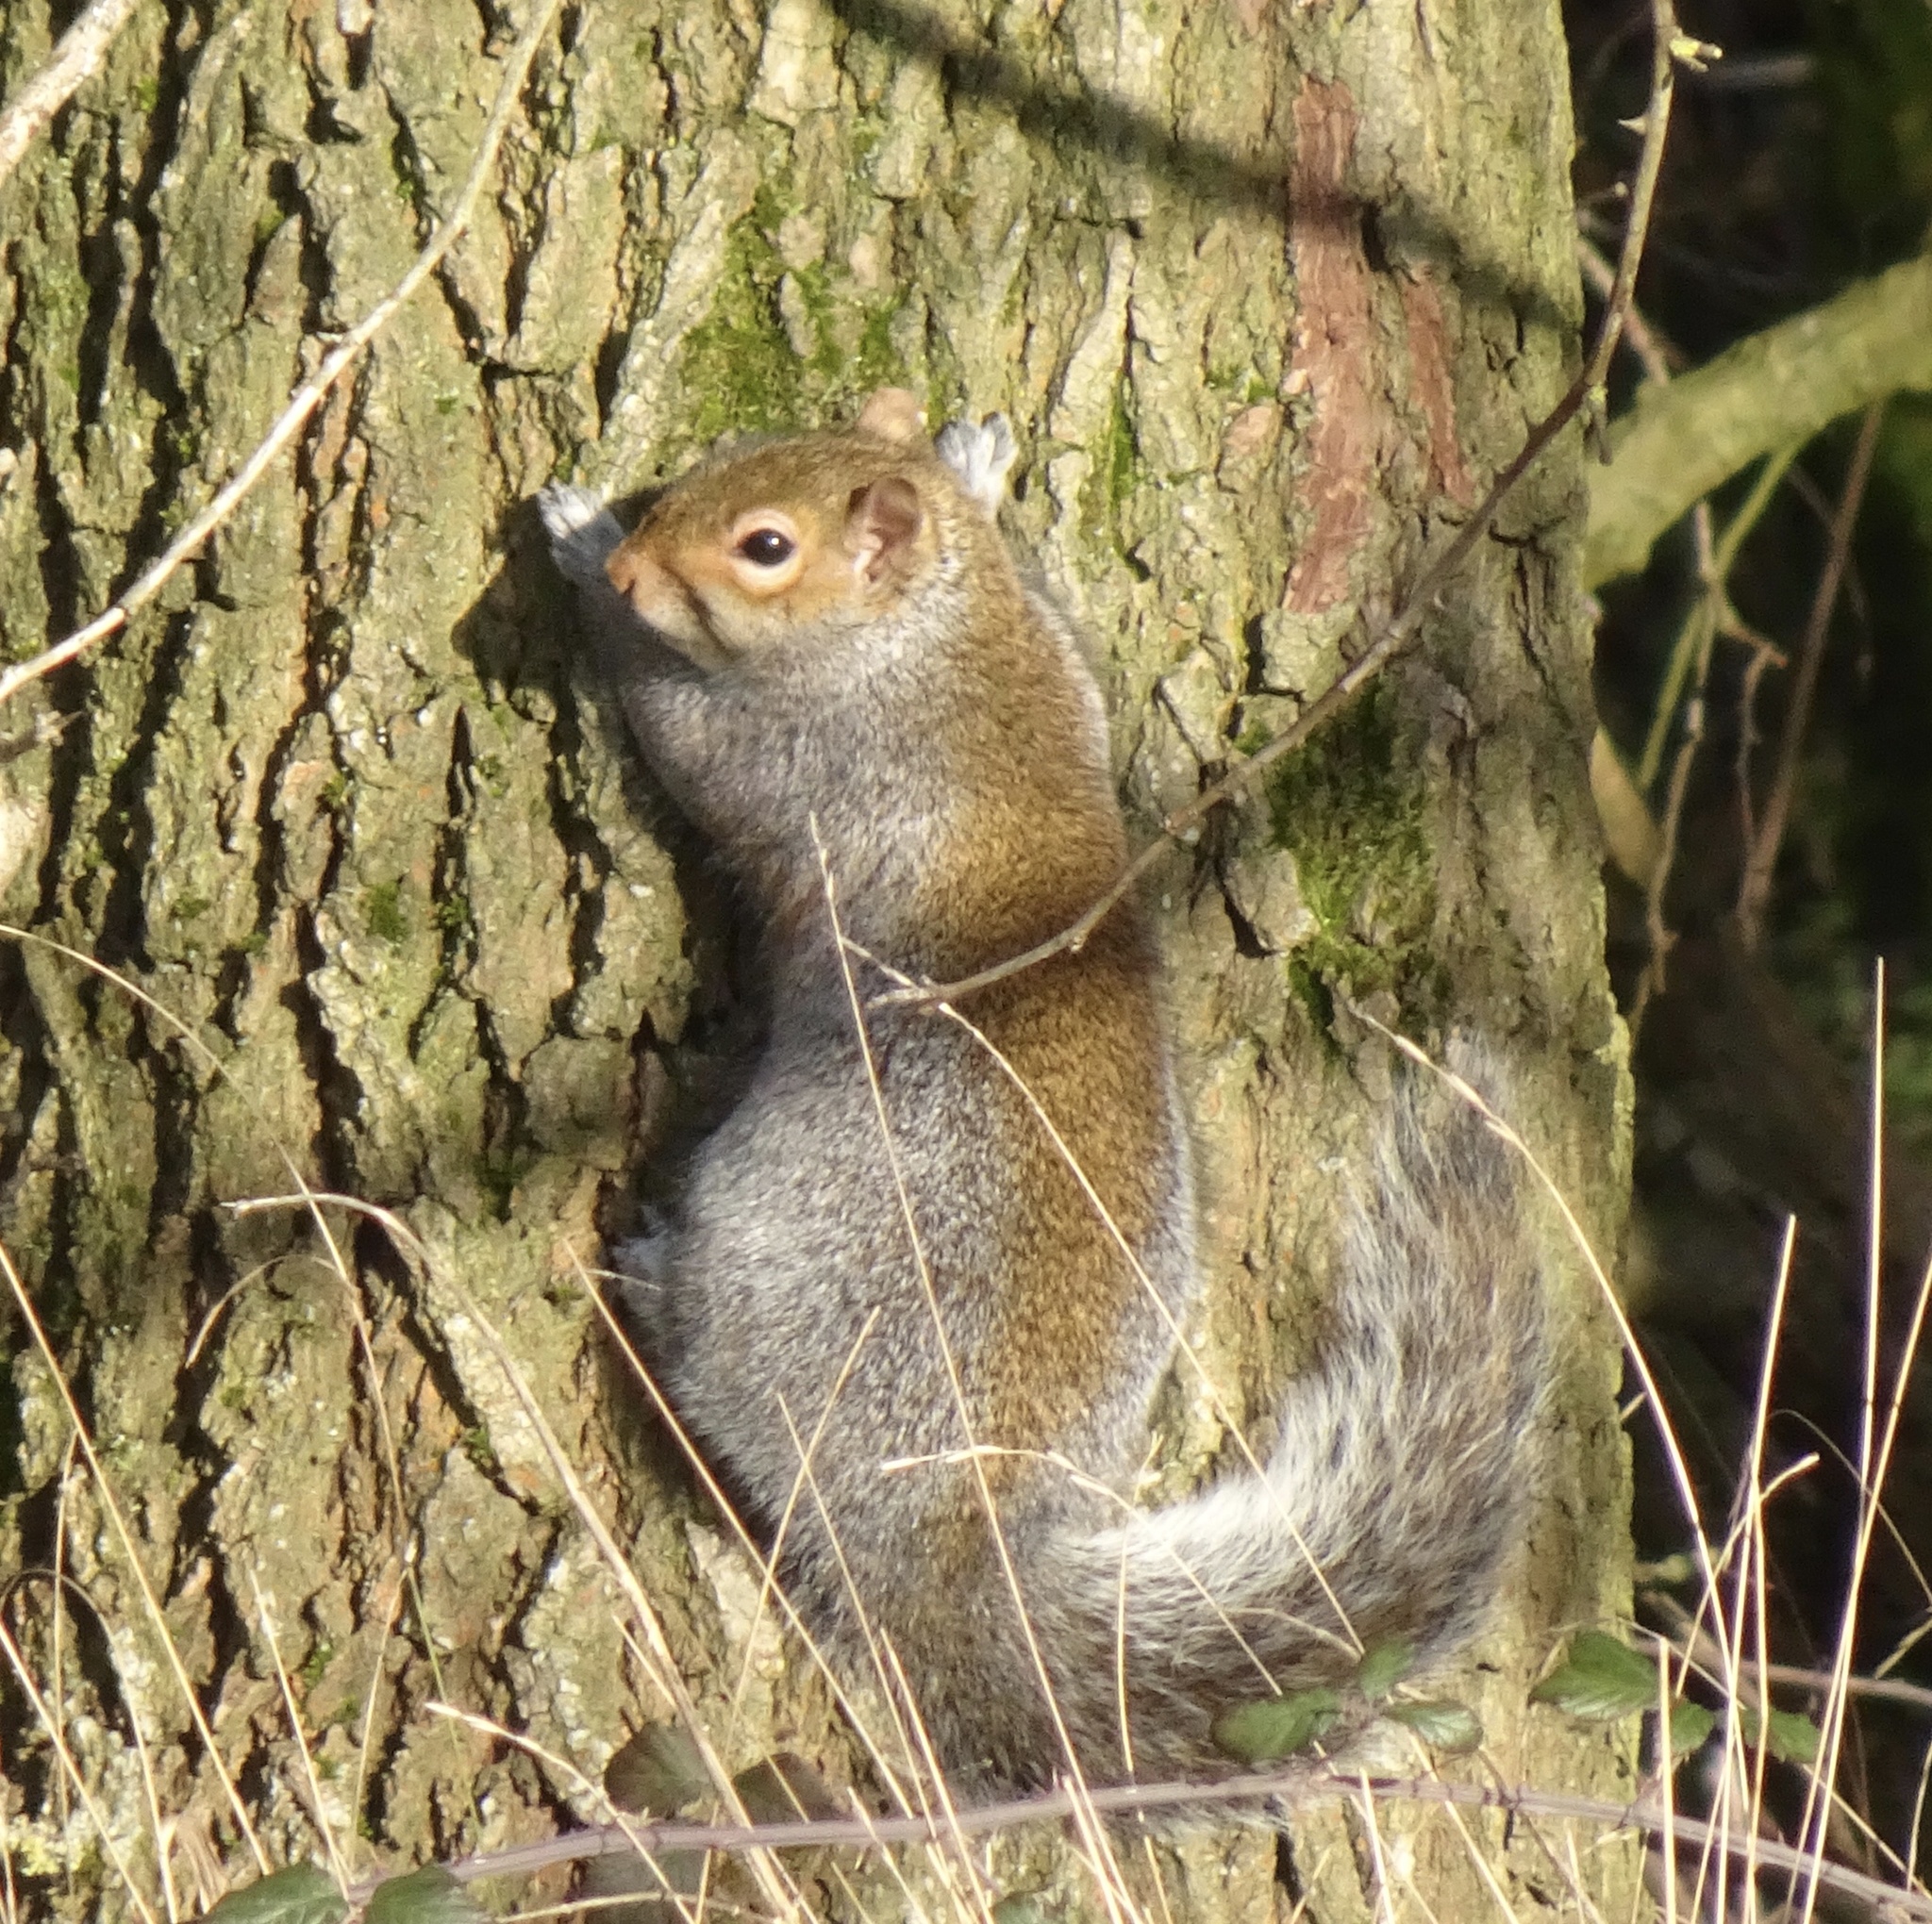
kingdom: Animalia
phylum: Chordata
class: Mammalia
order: Rodentia
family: Sciuridae
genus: Sciurus
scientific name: Sciurus carolinensis
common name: Eastern gray squirrel
